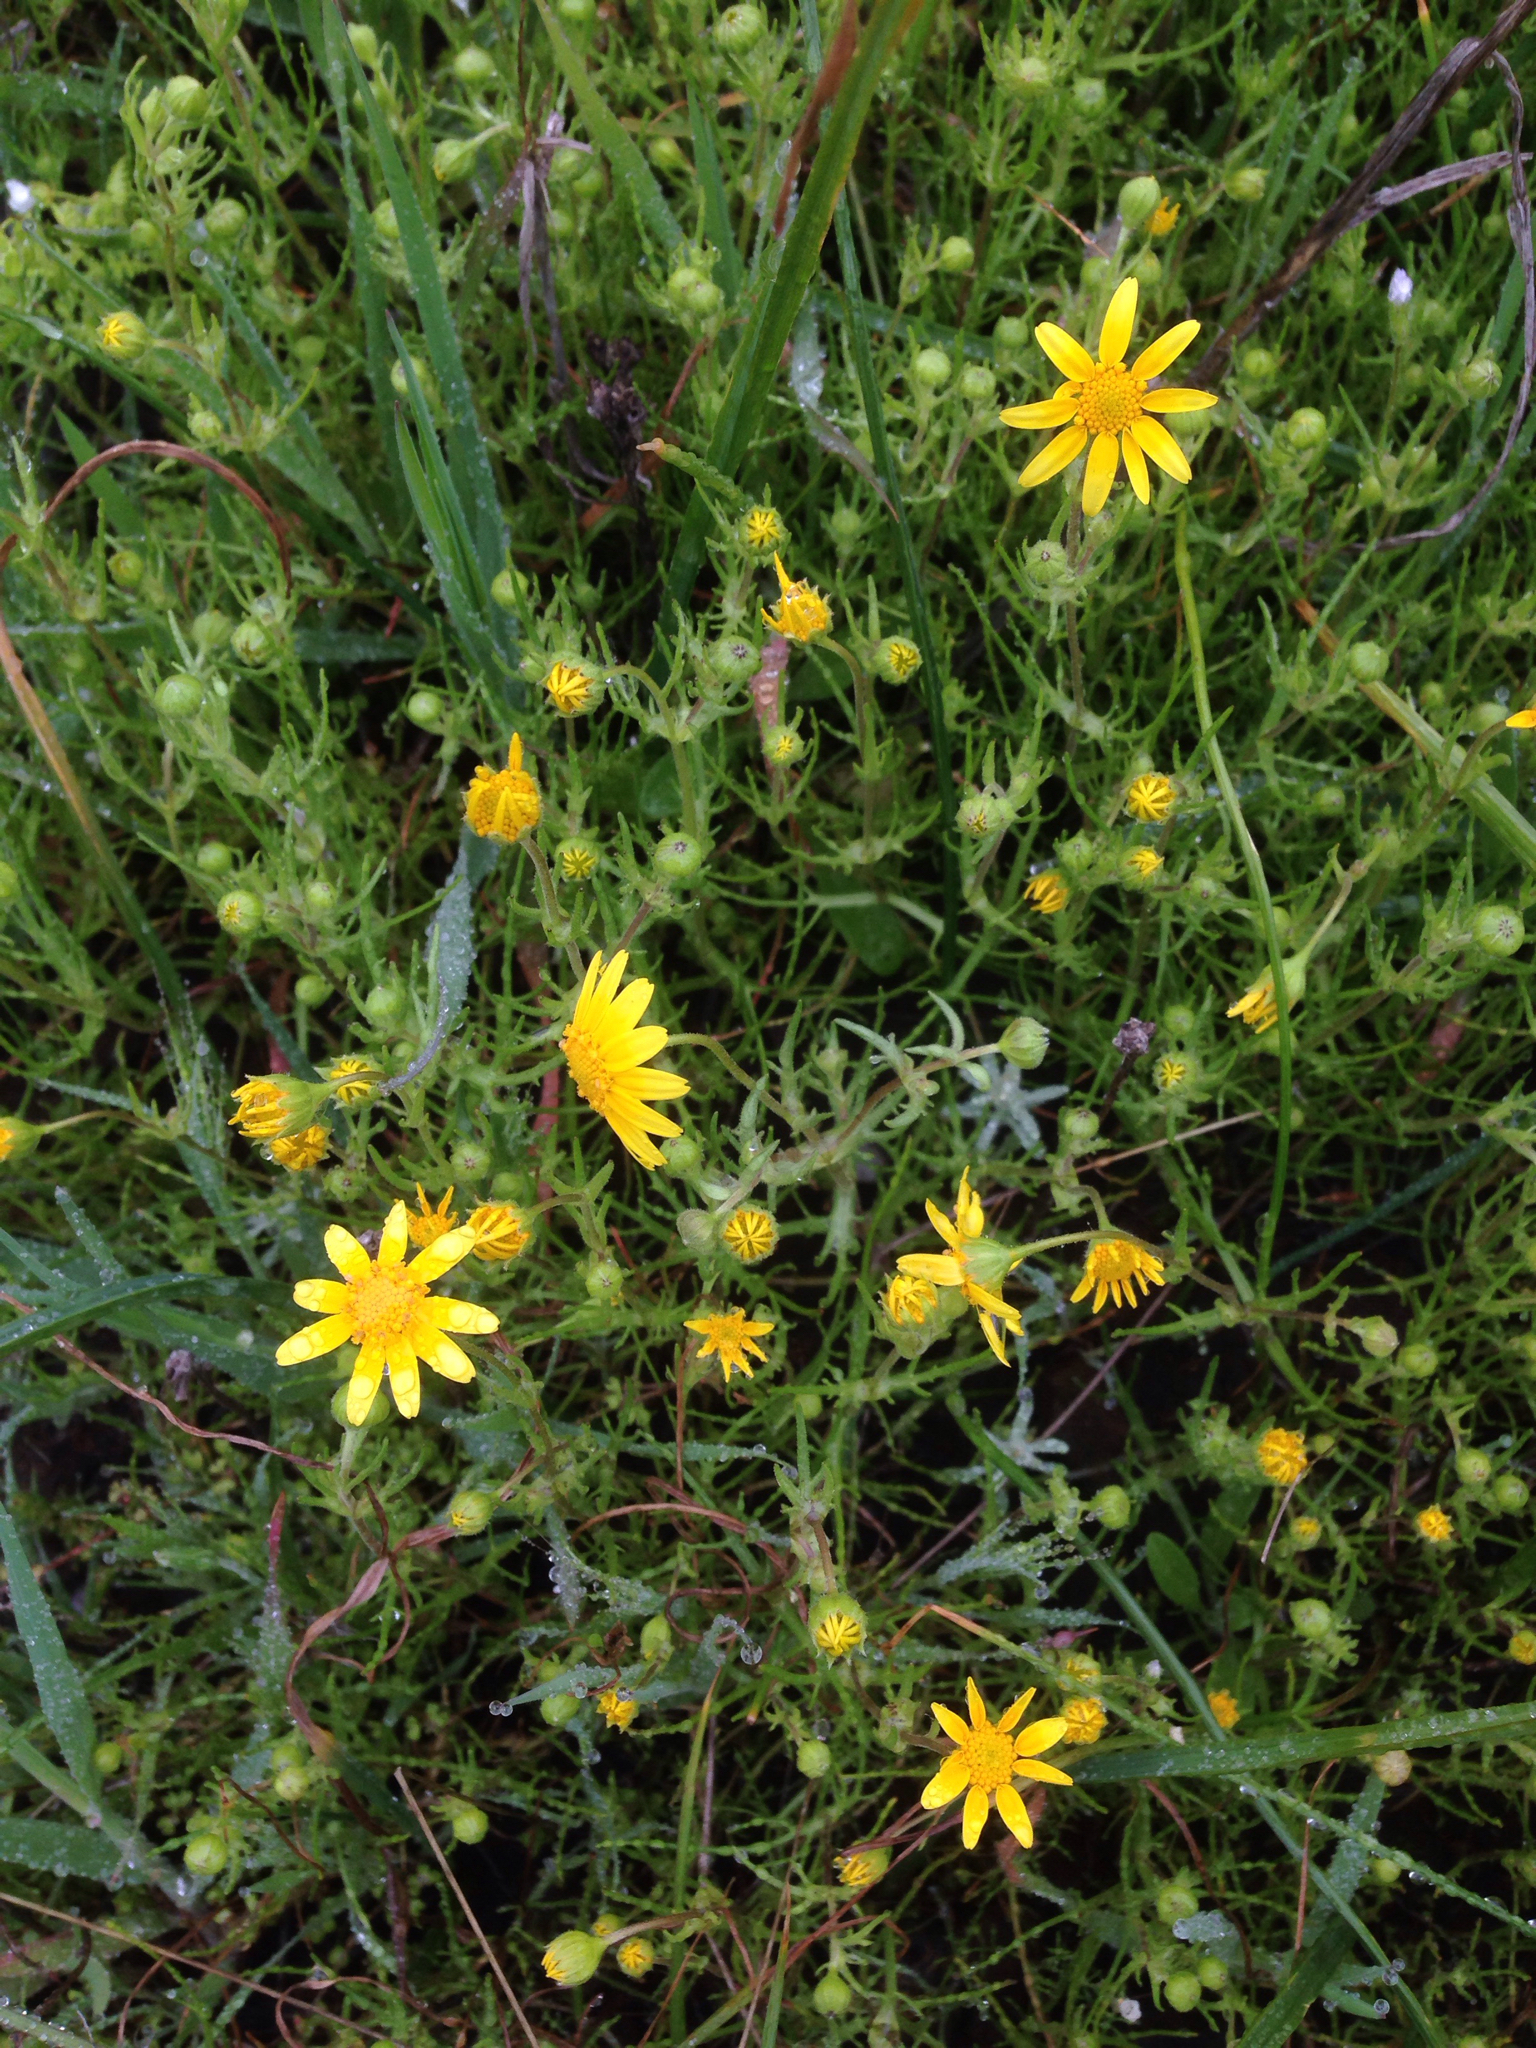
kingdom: Plantae
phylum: Tracheophyta
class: Magnoliopsida
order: Asterales
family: Asteraceae
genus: Lasthenia
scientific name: Lasthenia coronaria
